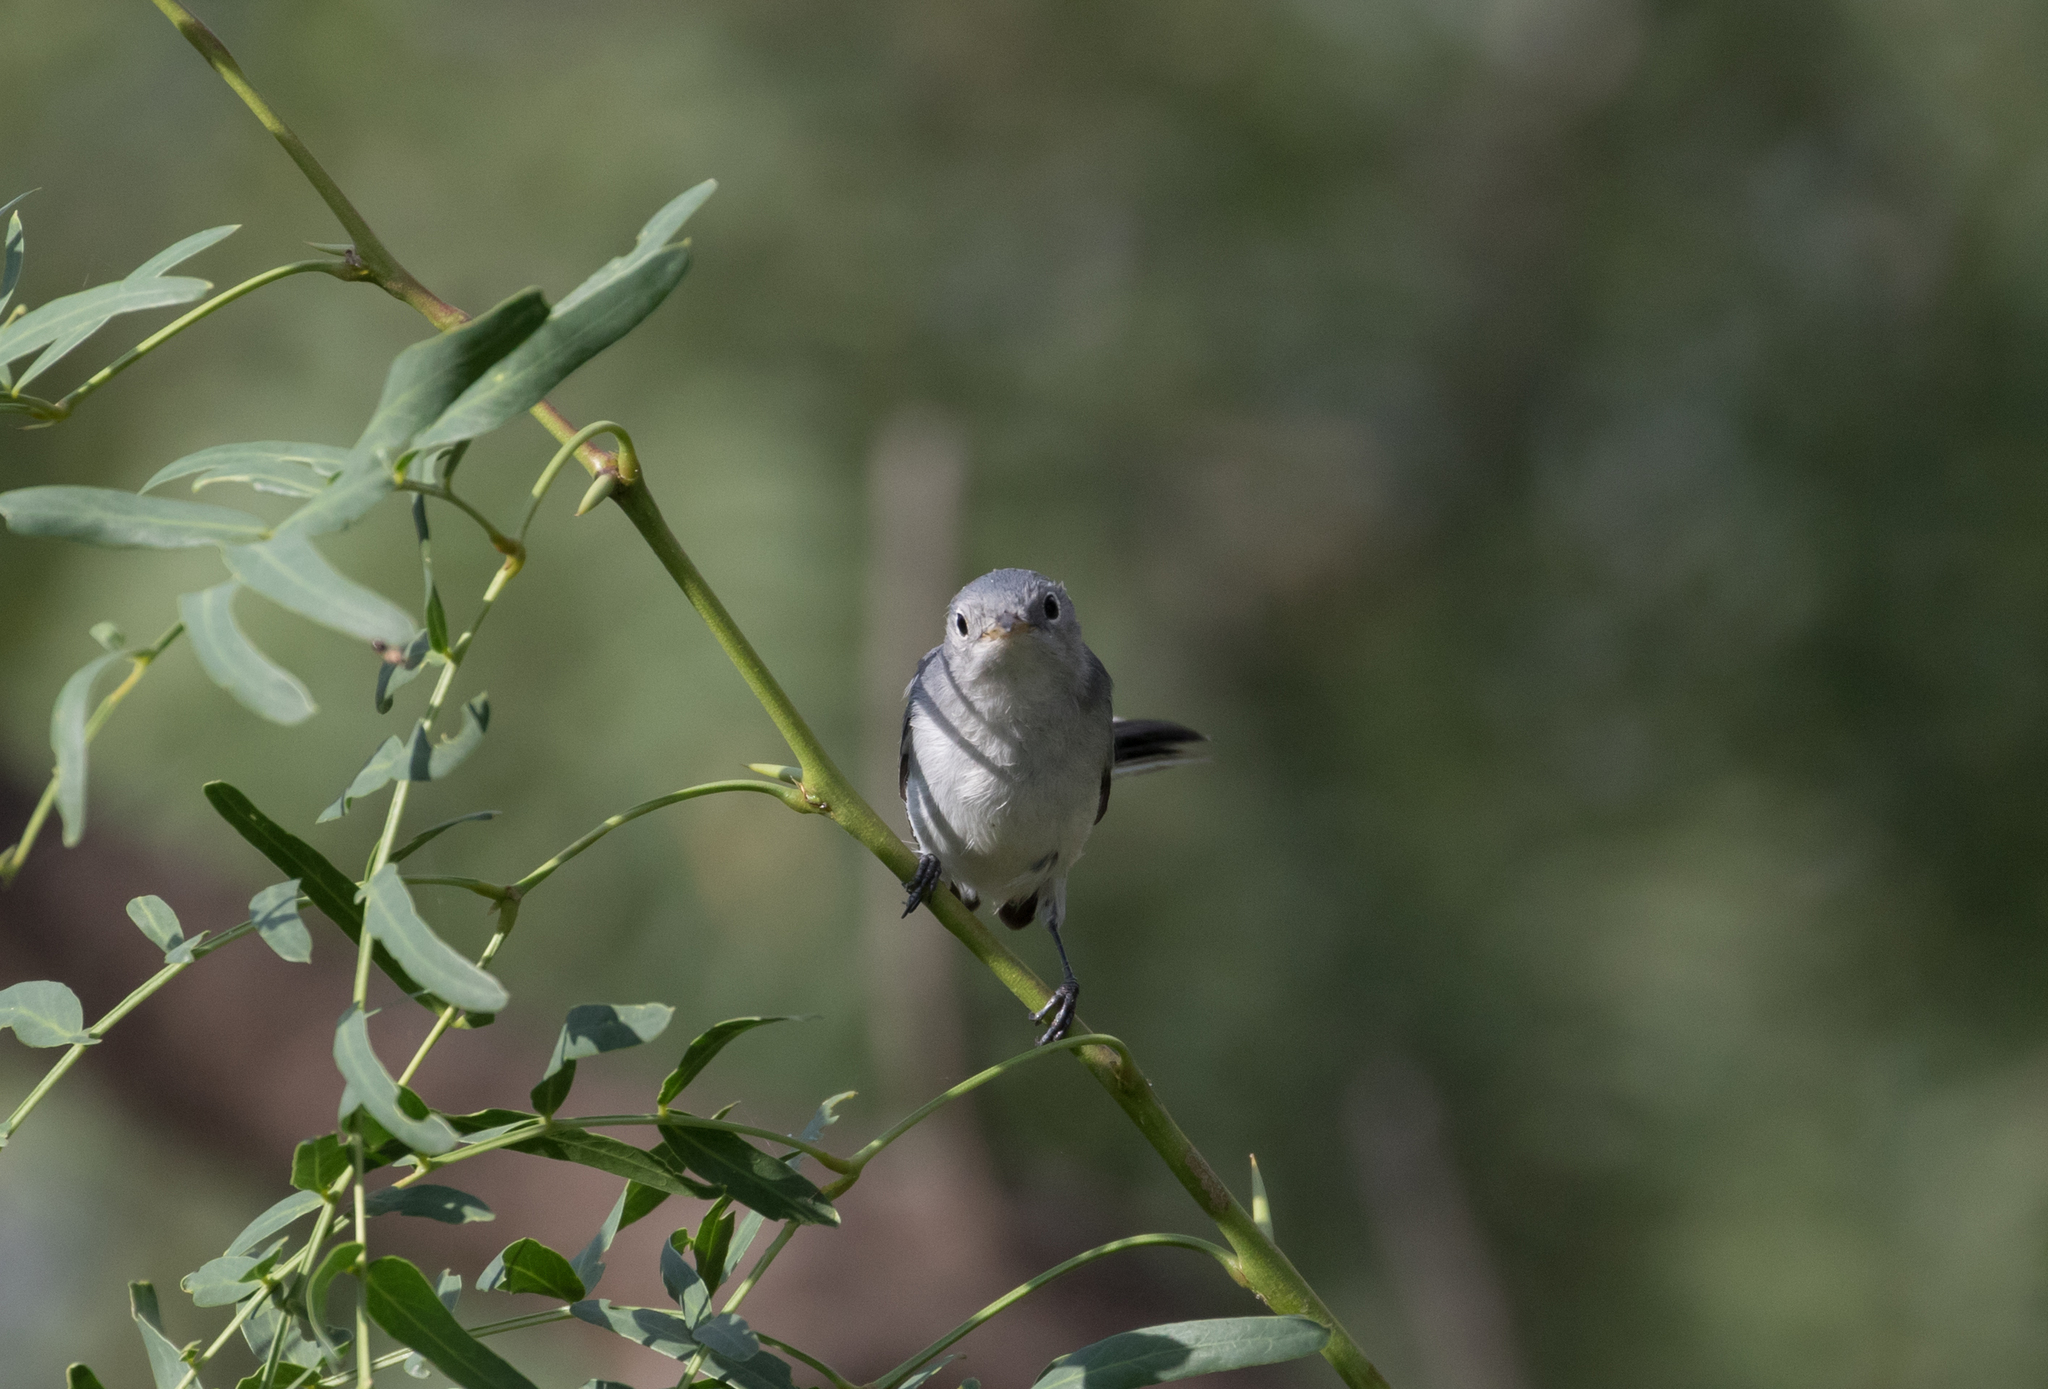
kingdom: Animalia
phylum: Chordata
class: Aves
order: Passeriformes
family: Polioptilidae
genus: Polioptila
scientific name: Polioptila caerulea
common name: Blue-gray gnatcatcher
